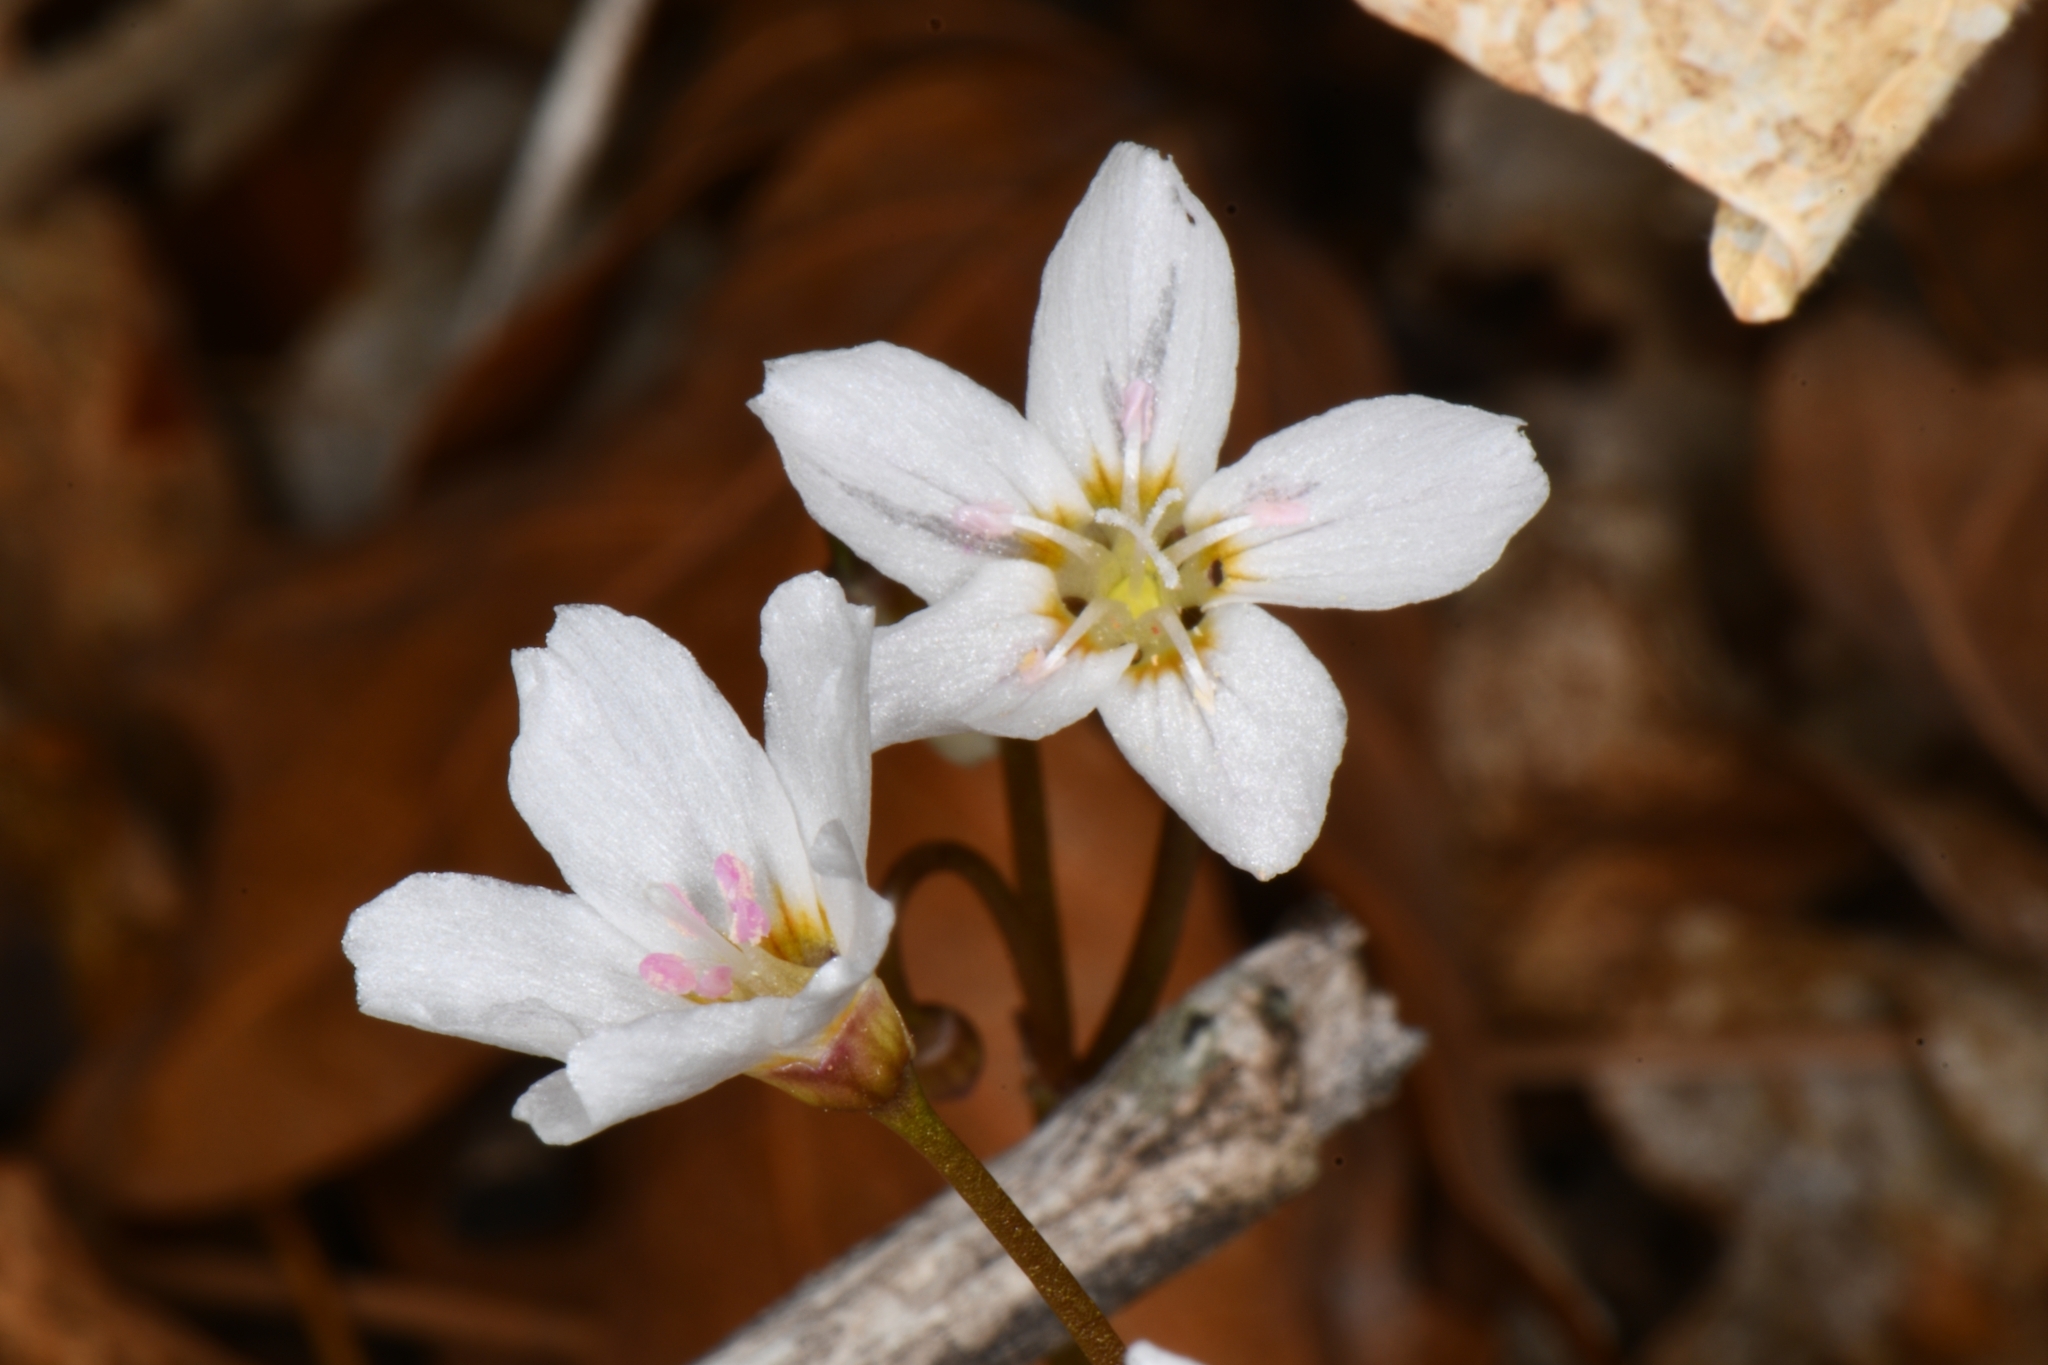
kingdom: Plantae
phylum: Tracheophyta
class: Magnoliopsida
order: Caryophyllales
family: Montiaceae
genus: Claytonia
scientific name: Claytonia rosea
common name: Rocky mountain spring-beauty
